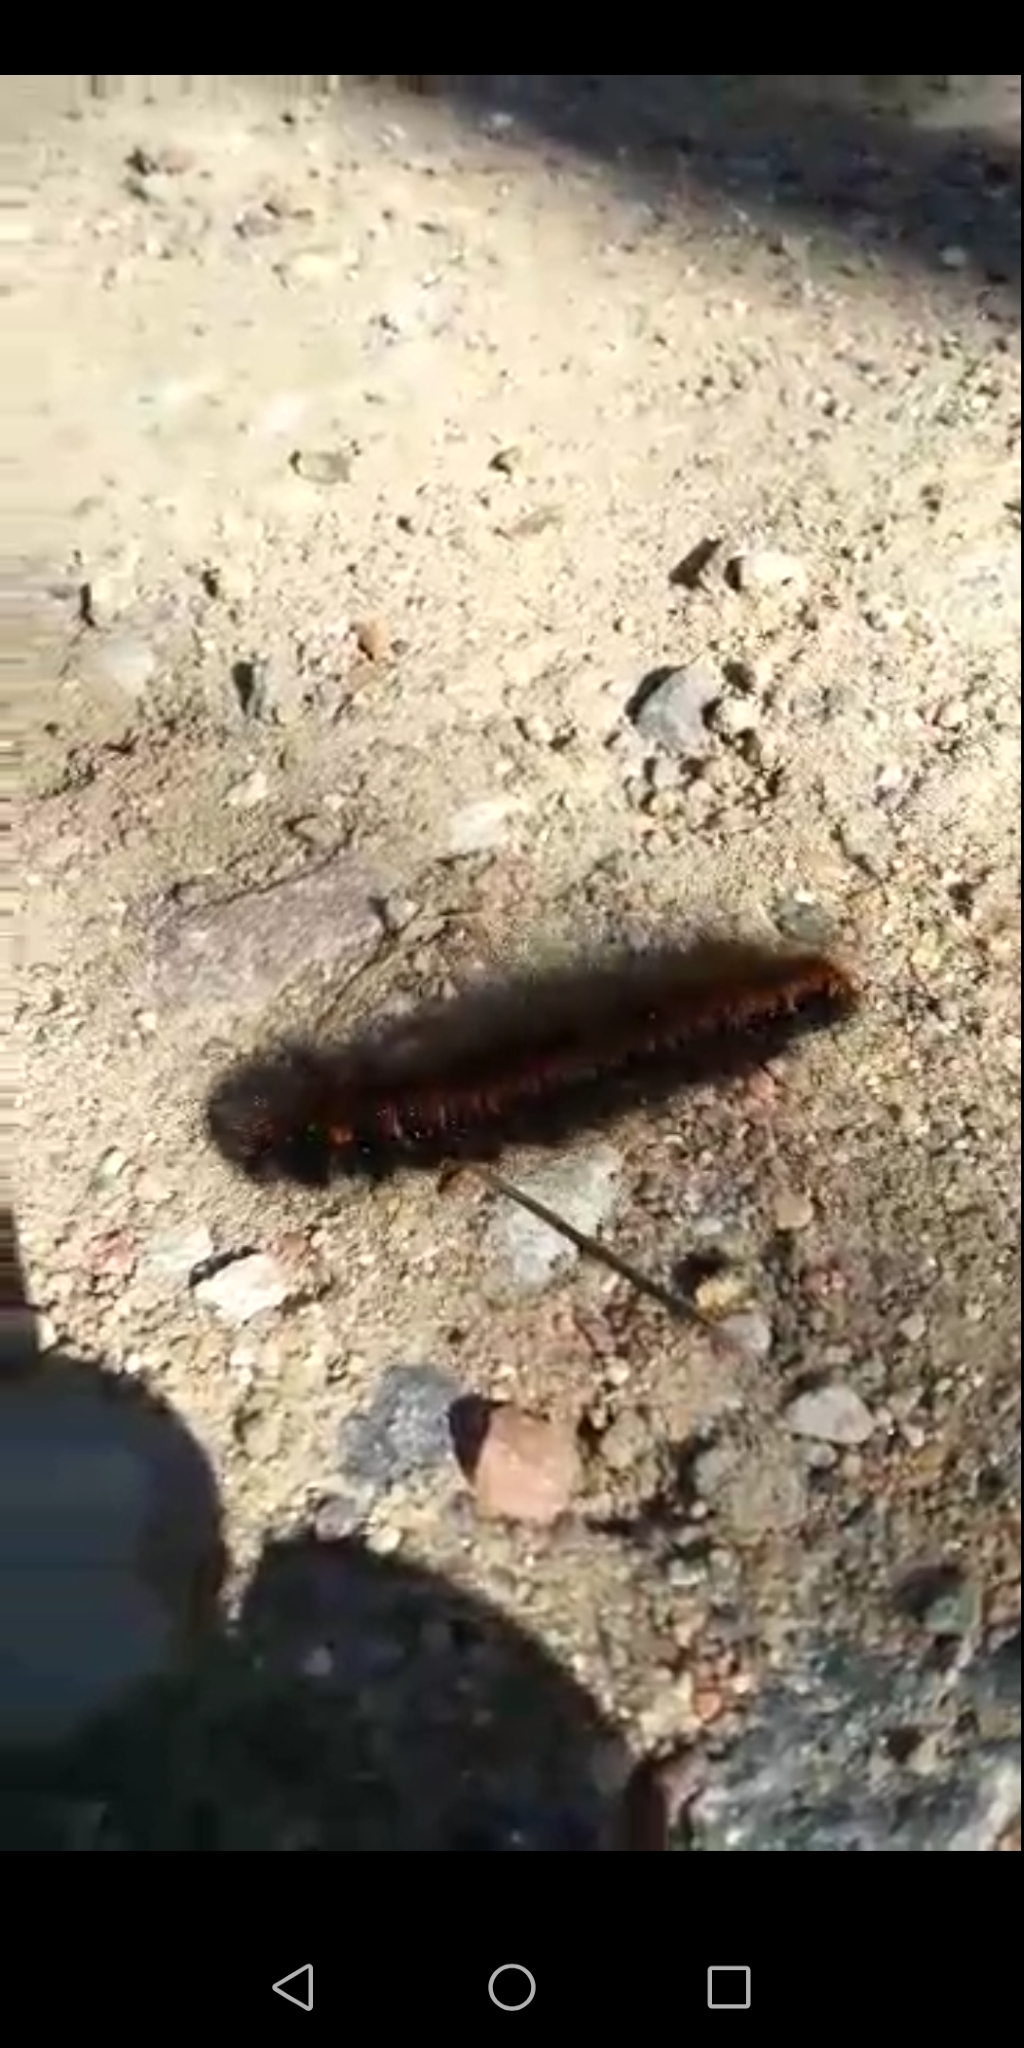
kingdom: Animalia
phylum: Arthropoda
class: Insecta
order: Lepidoptera
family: Lasiocampidae
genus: Macrothylacia
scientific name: Macrothylacia rubi
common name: Fox moth
